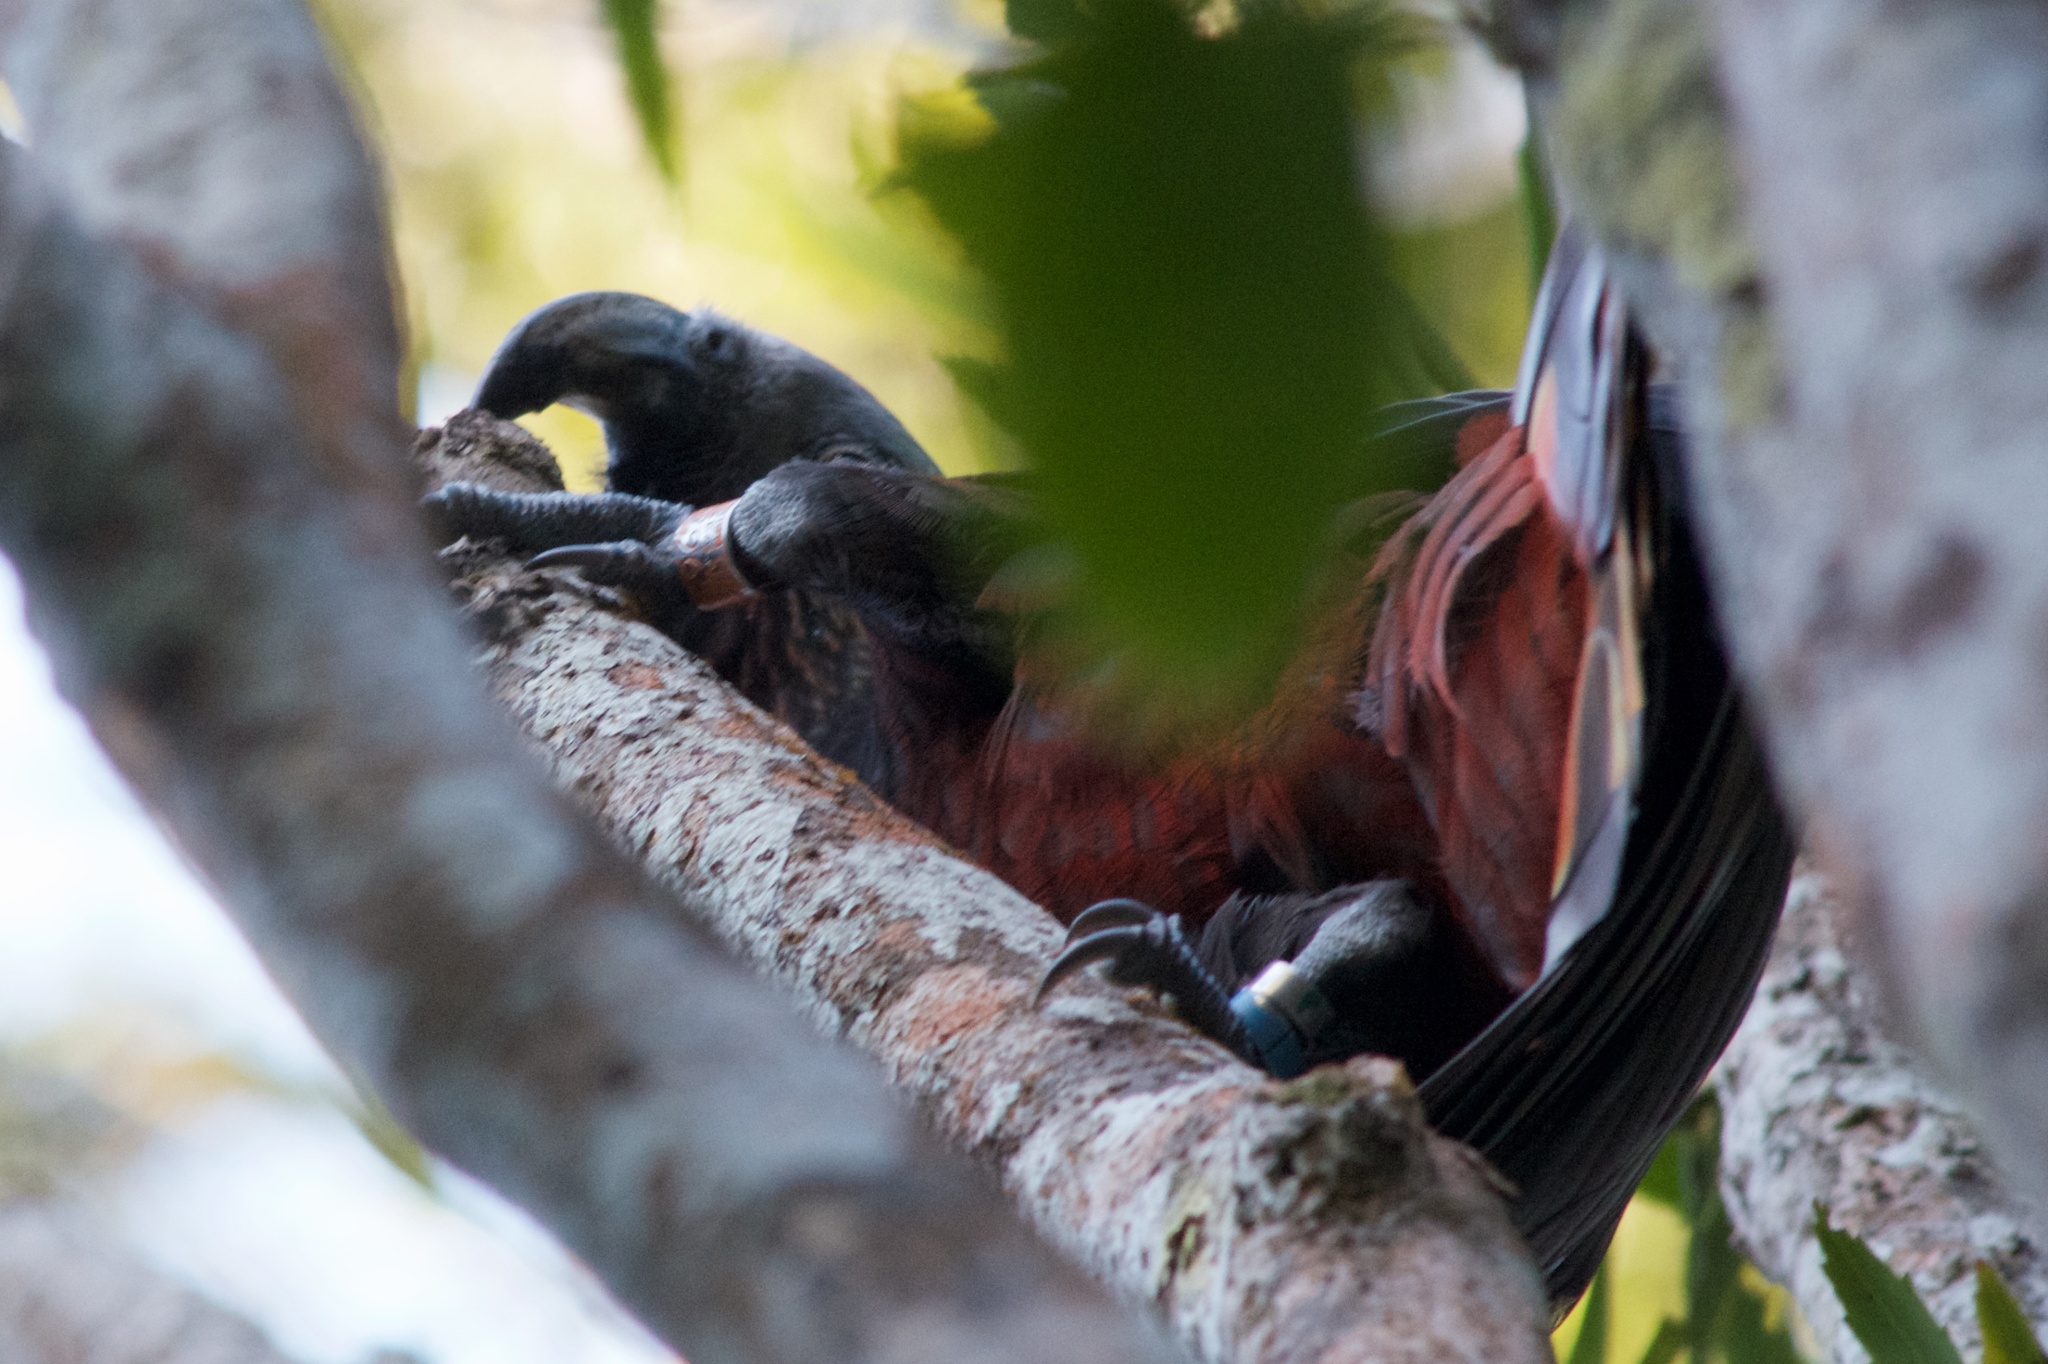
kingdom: Animalia
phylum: Chordata
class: Aves
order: Psittaciformes
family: Psittacidae
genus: Nestor
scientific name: Nestor meridionalis
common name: New zealand kaka
